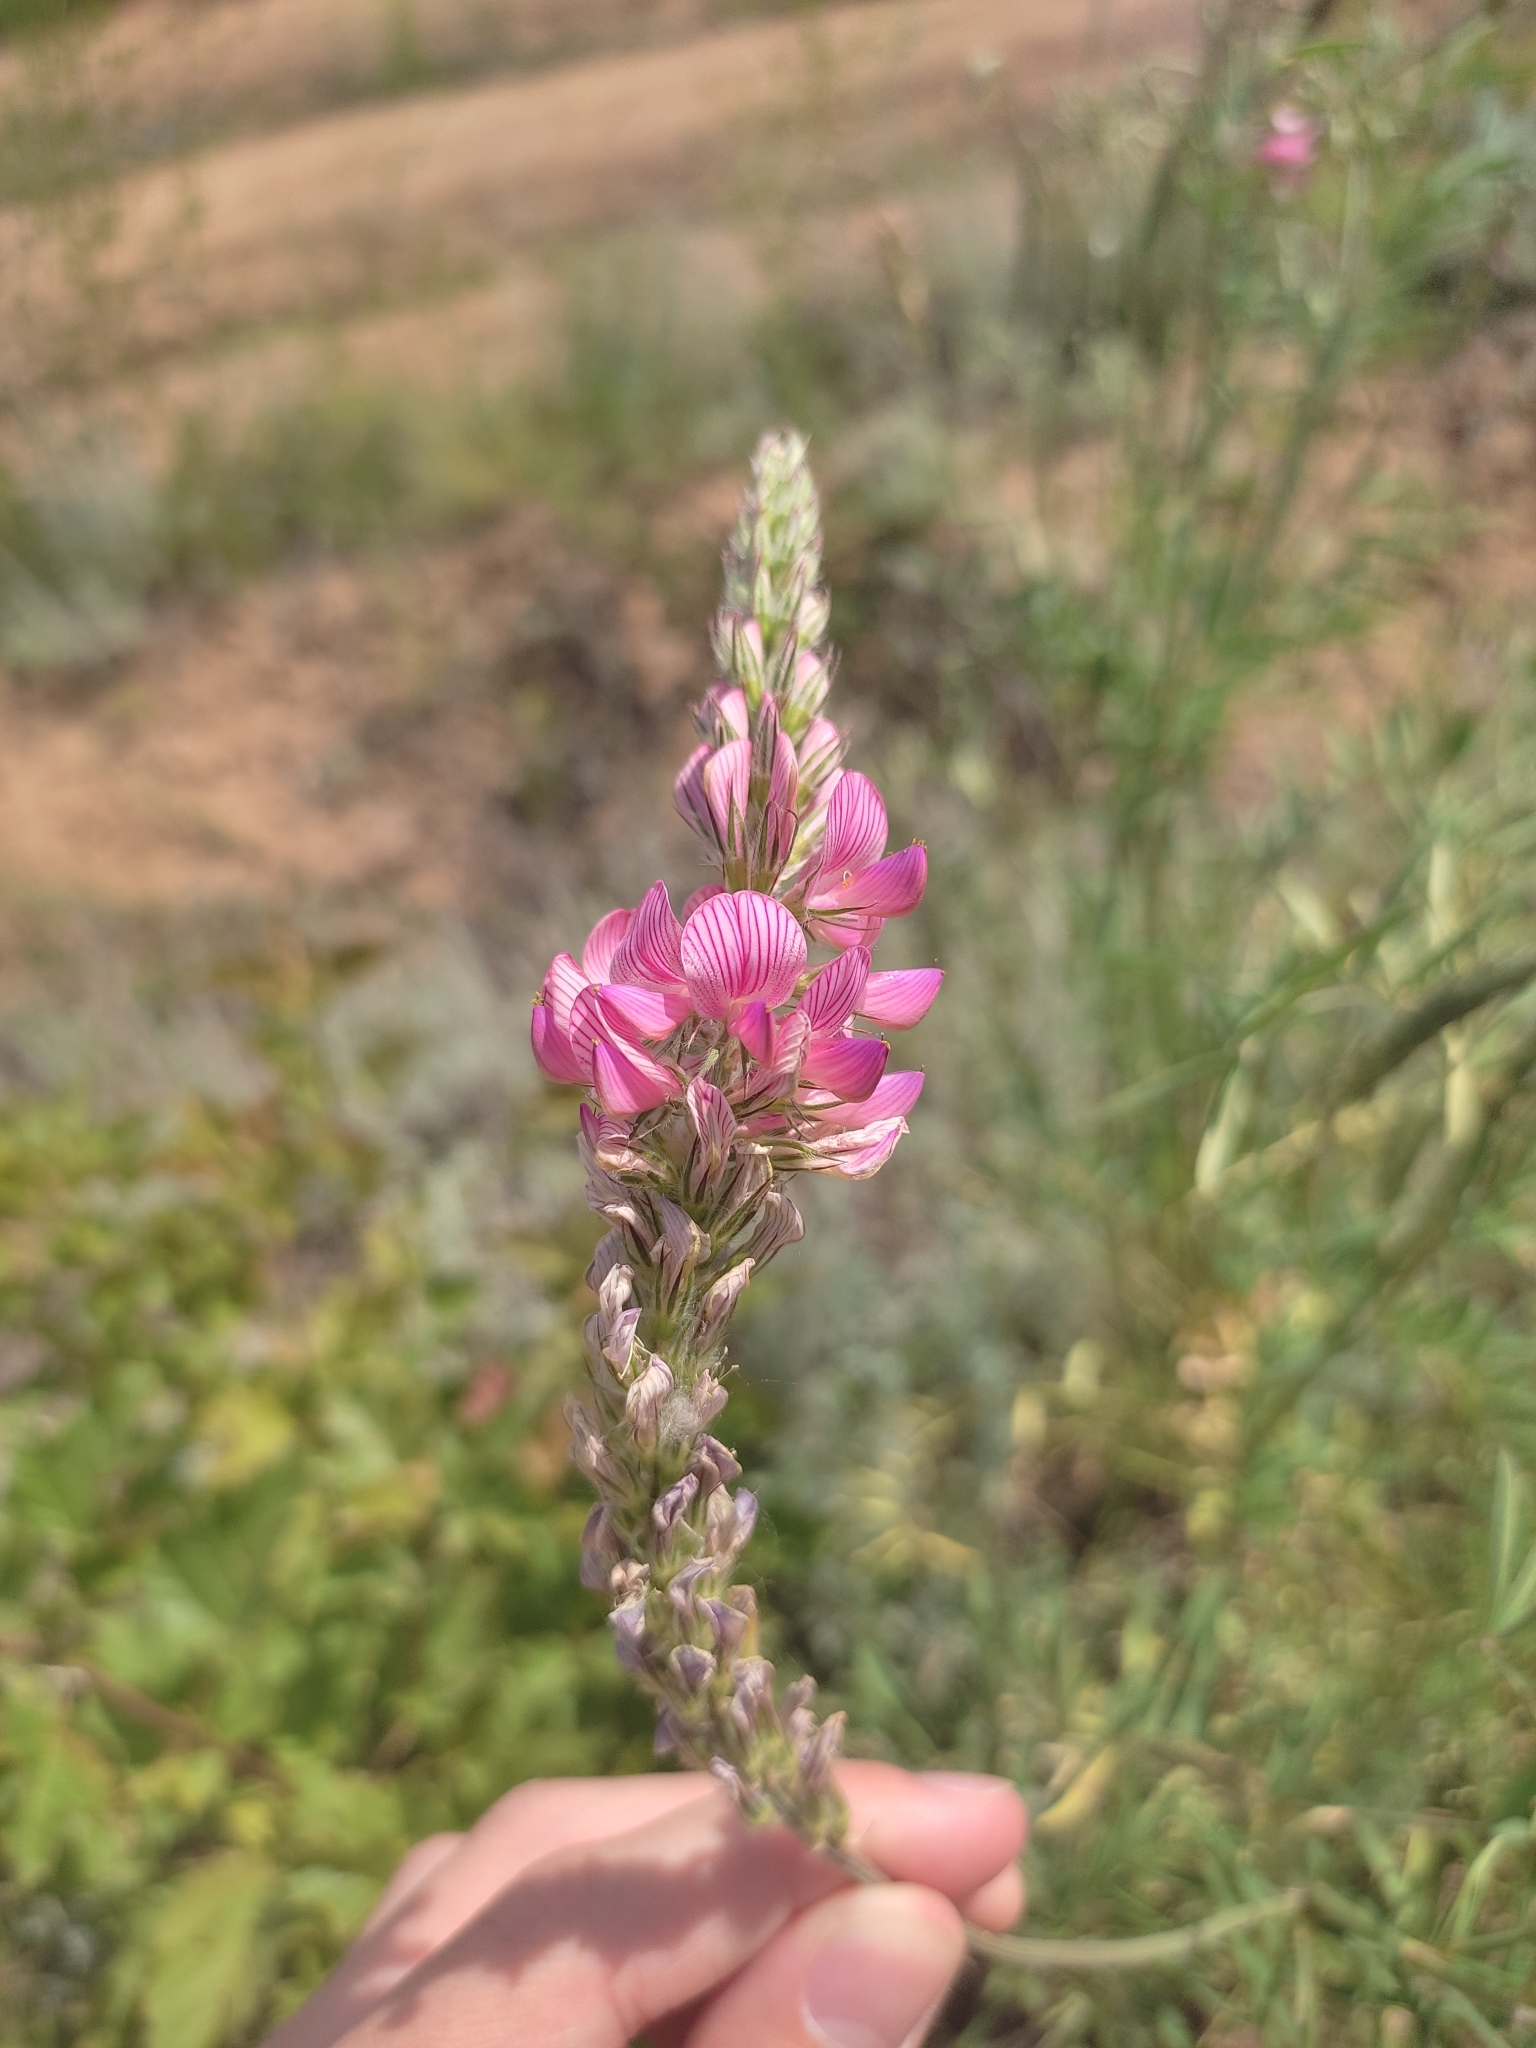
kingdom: Plantae
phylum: Tracheophyta
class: Magnoliopsida
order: Fabales
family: Fabaceae
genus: Onobrychis
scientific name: Onobrychis viciifolia
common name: Sainfoin
